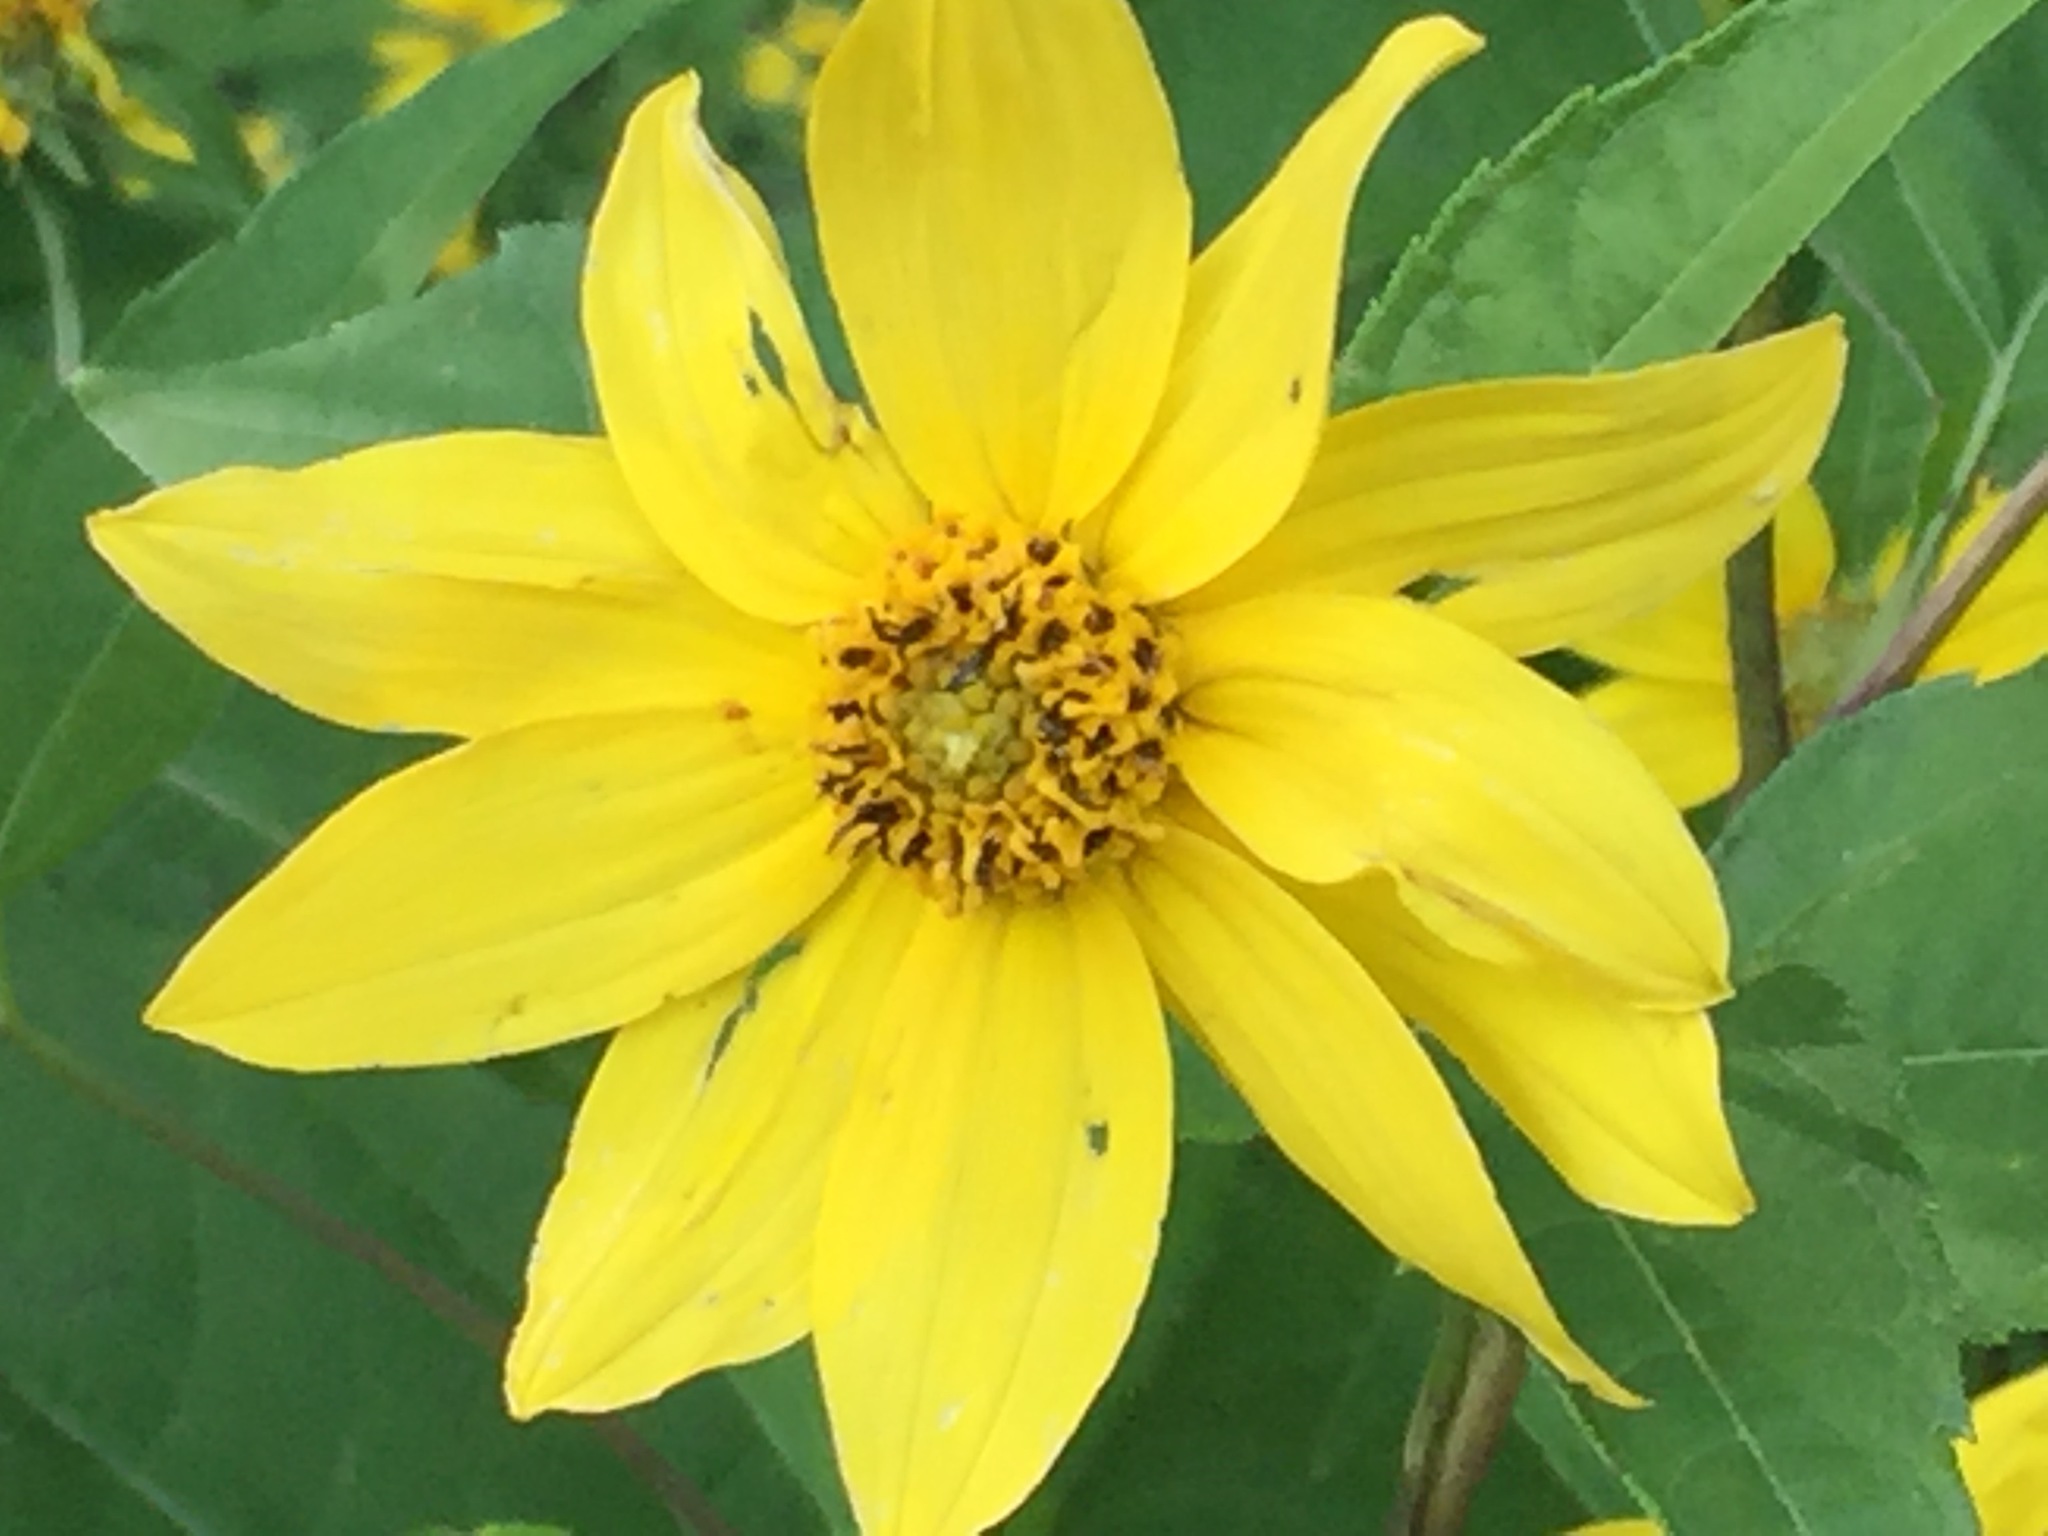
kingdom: Plantae
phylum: Tracheophyta
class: Magnoliopsida
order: Asterales
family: Asteraceae
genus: Helianthus
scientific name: Helianthus tuberosus
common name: Jerusalem artichoke
